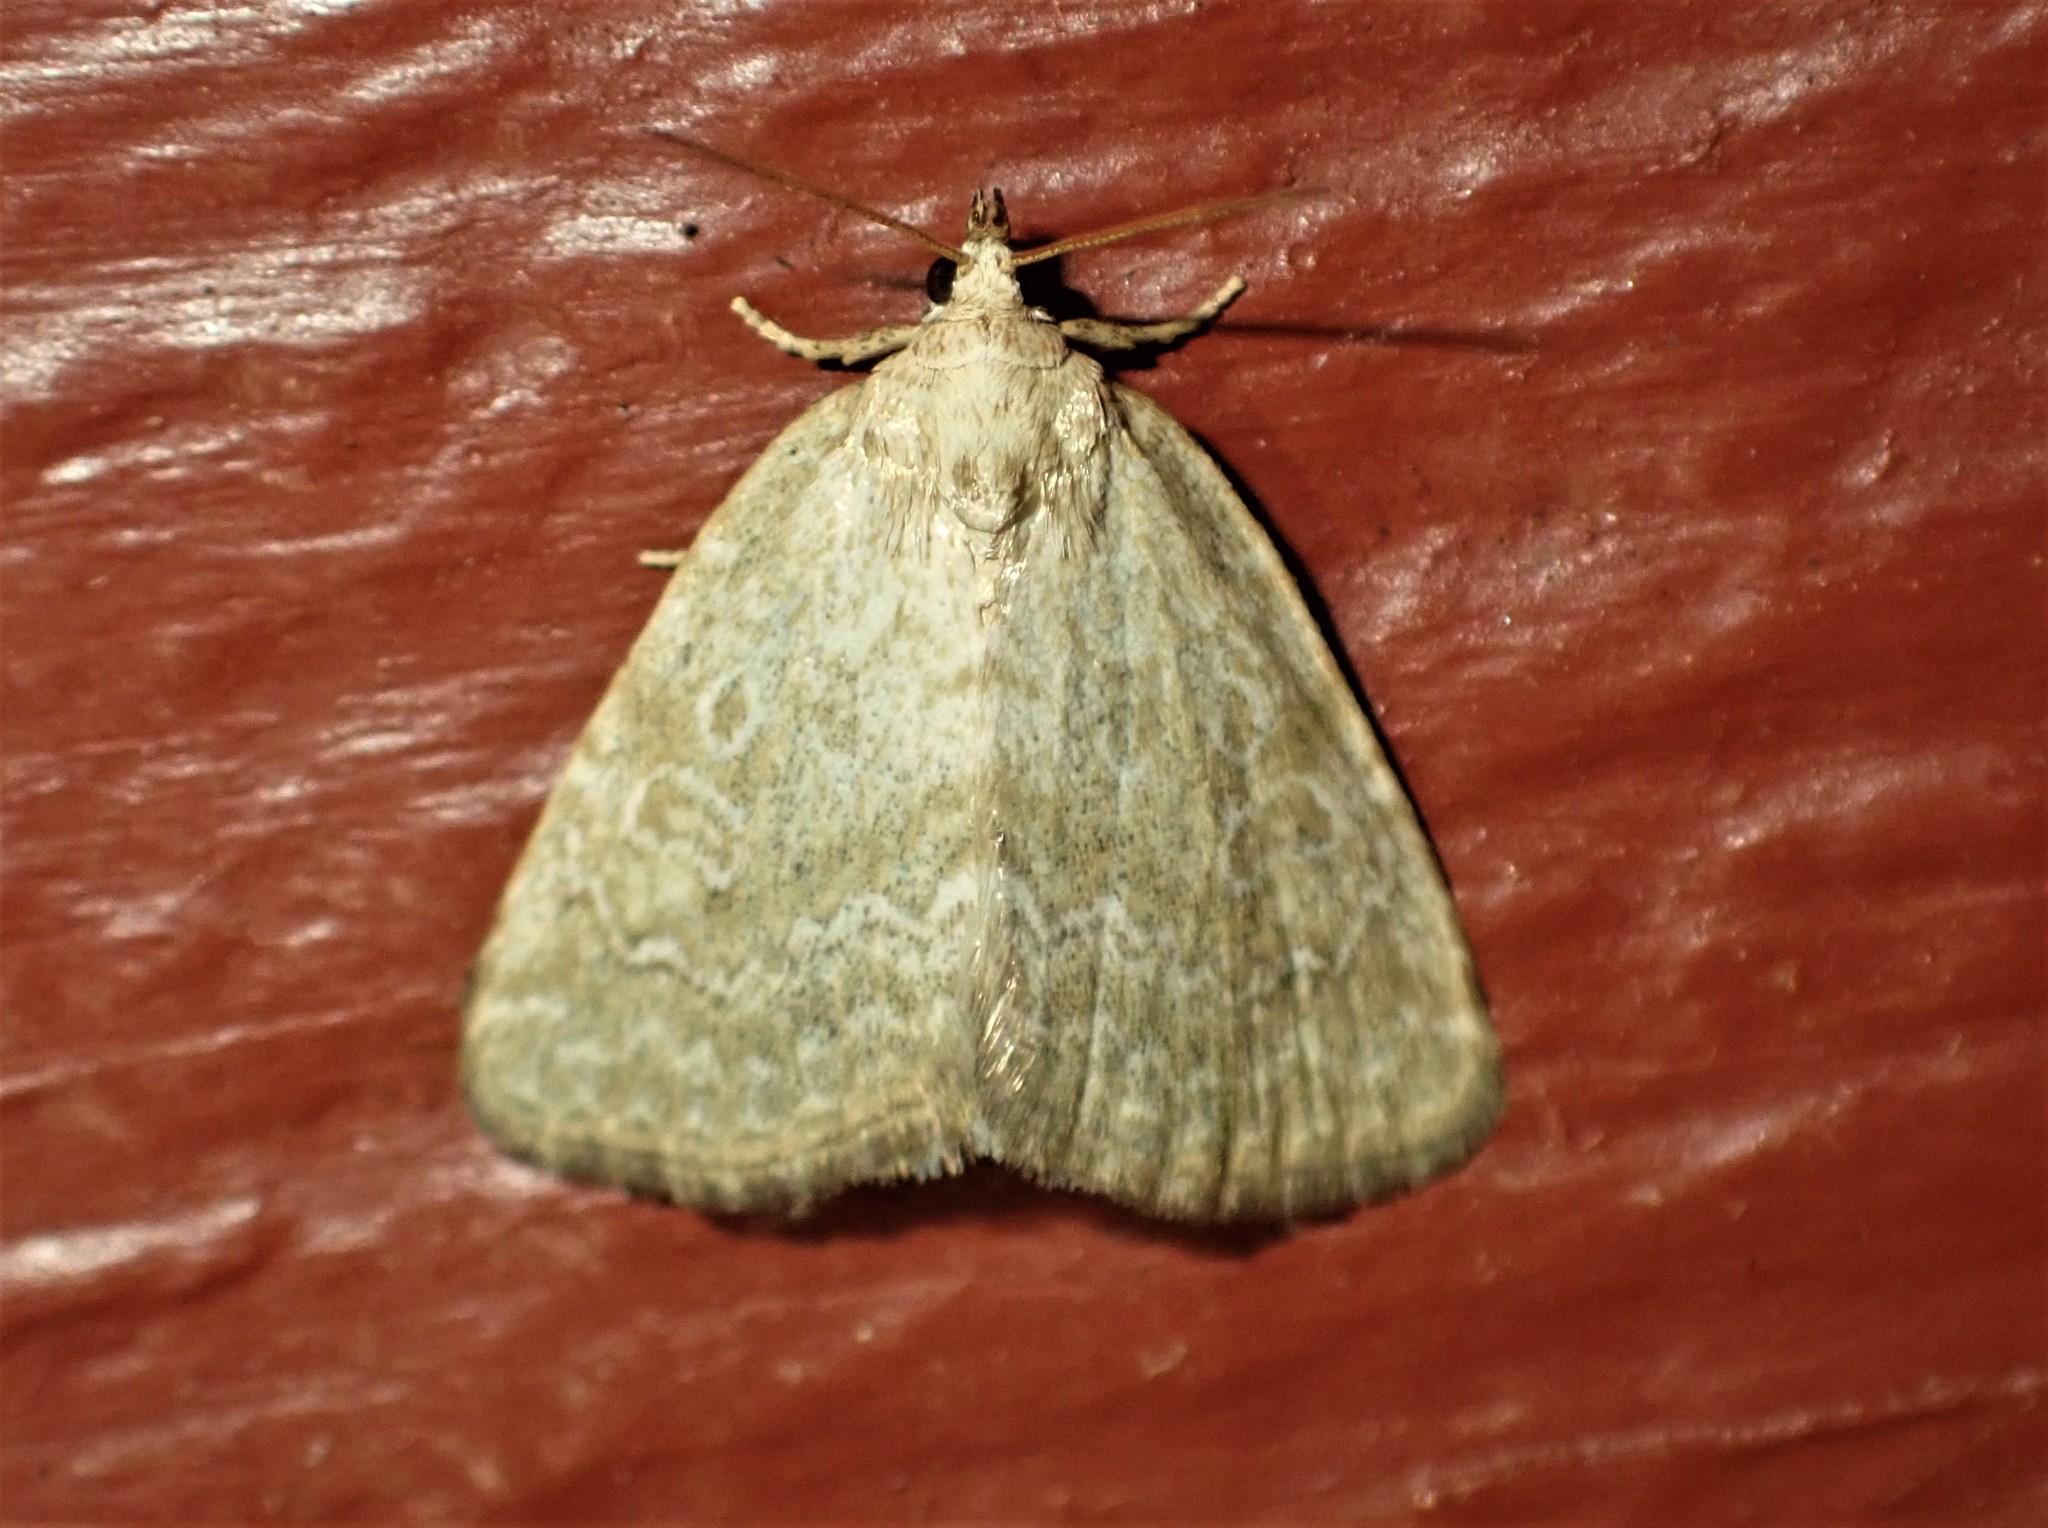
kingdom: Animalia
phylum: Arthropoda
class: Insecta
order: Lepidoptera
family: Noctuidae
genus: Protodeltote
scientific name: Protodeltote albidula
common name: Pale glyph
